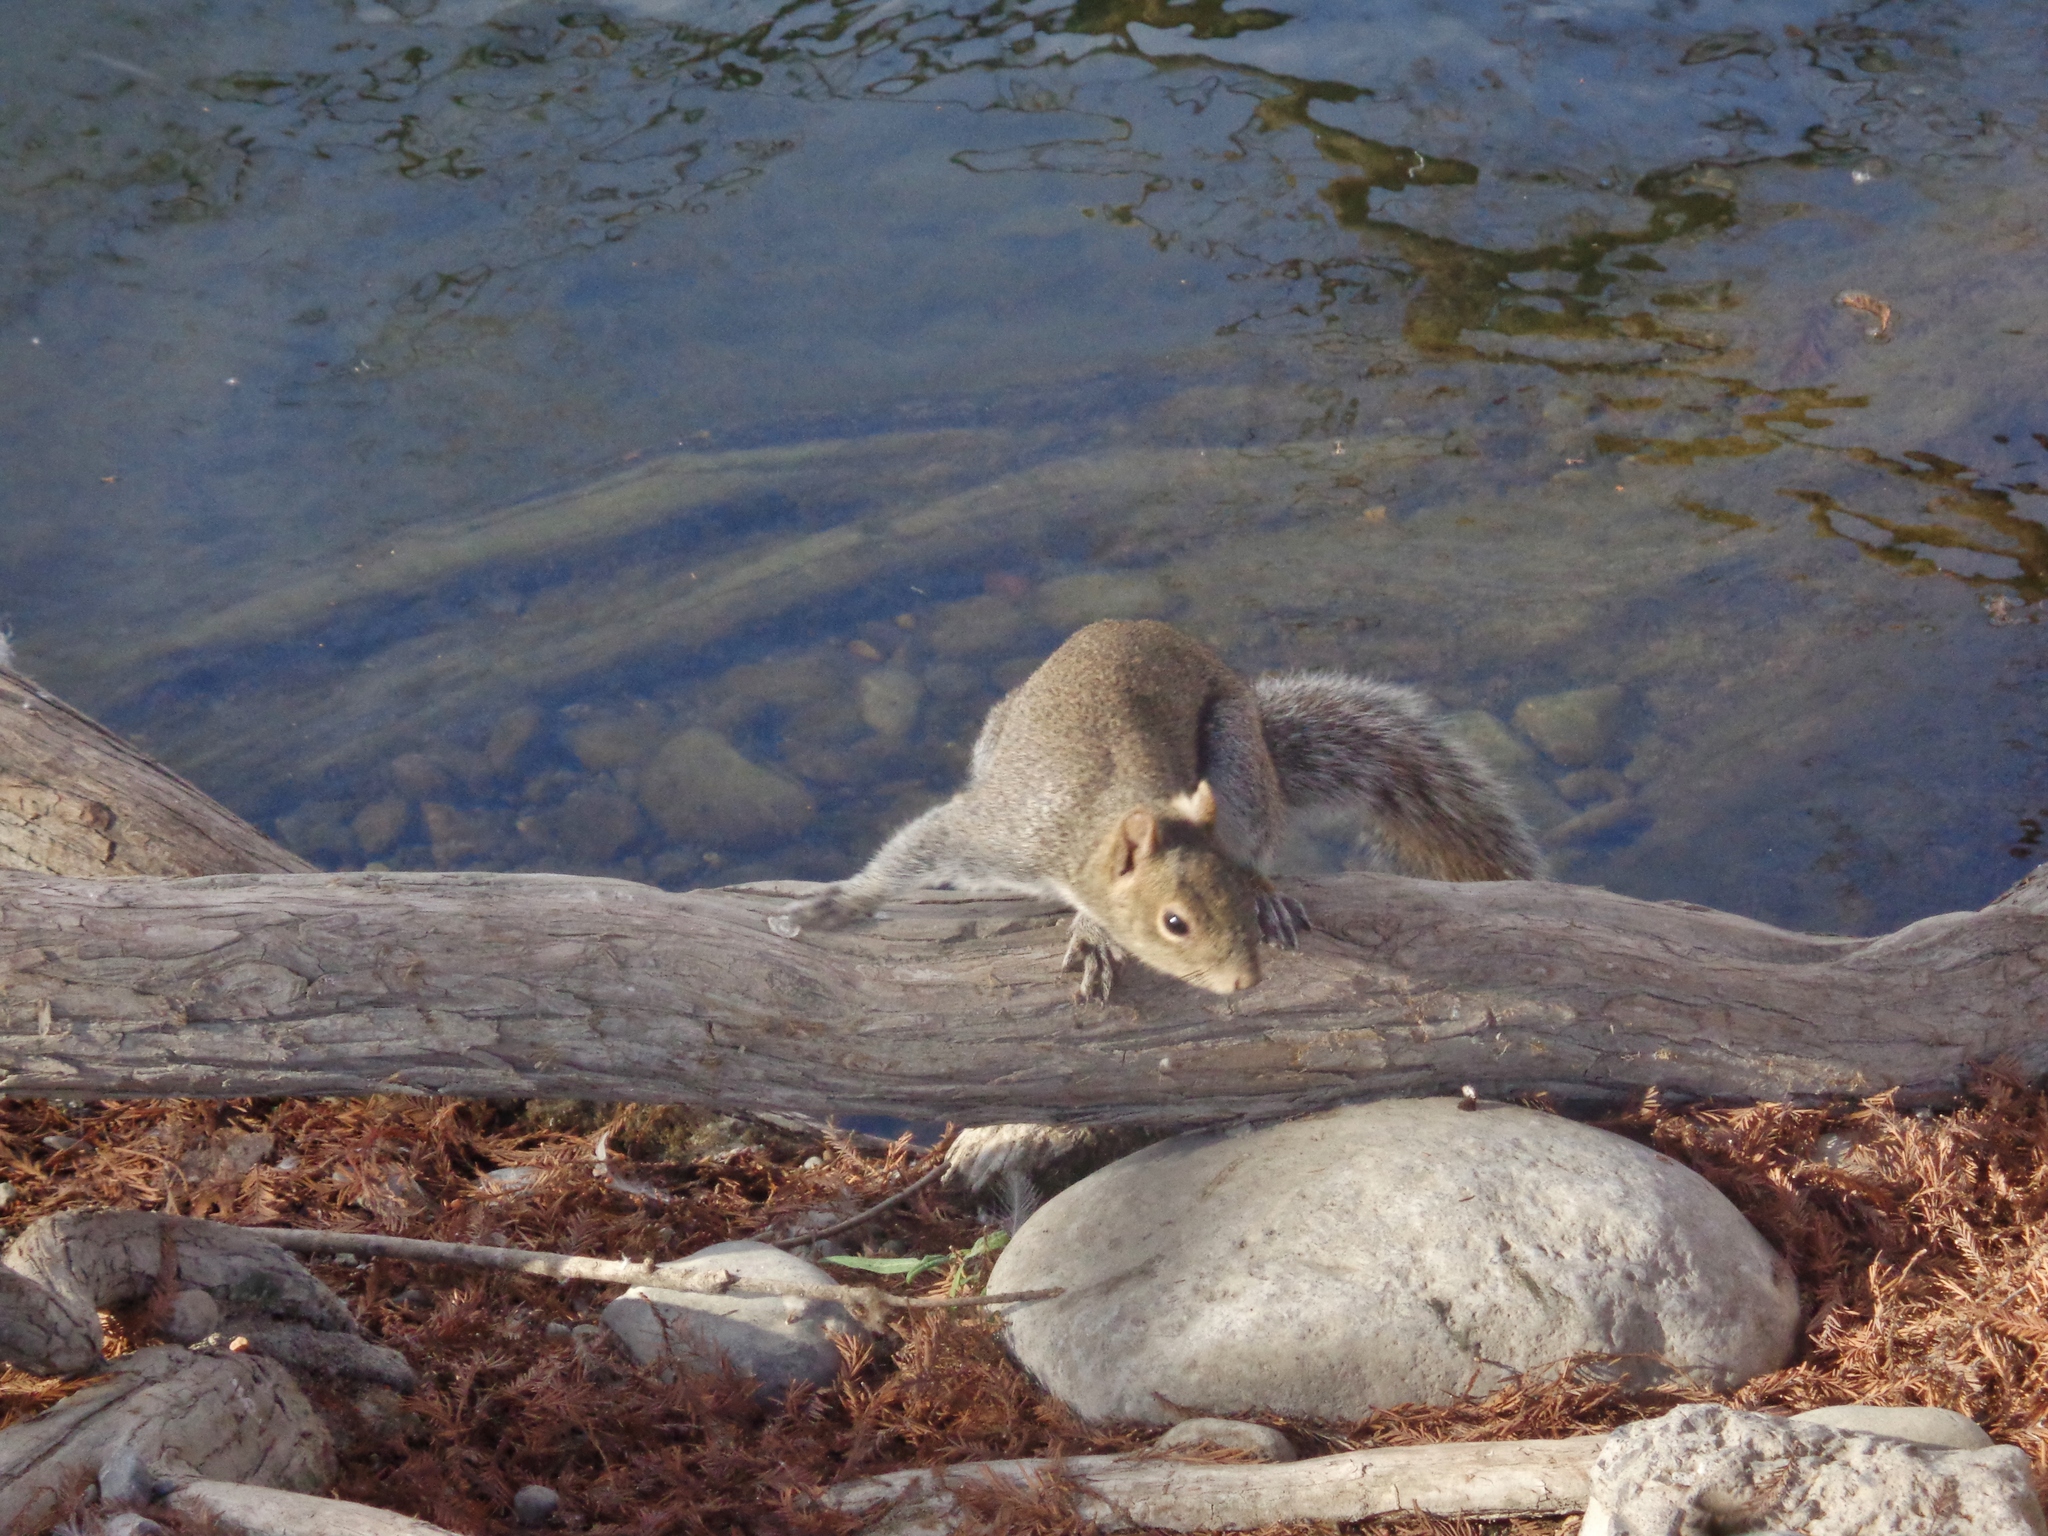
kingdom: Animalia
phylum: Chordata
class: Mammalia
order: Rodentia
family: Sciuridae
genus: Sciurus
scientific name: Sciurus alleni
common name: Allen's squirrel
